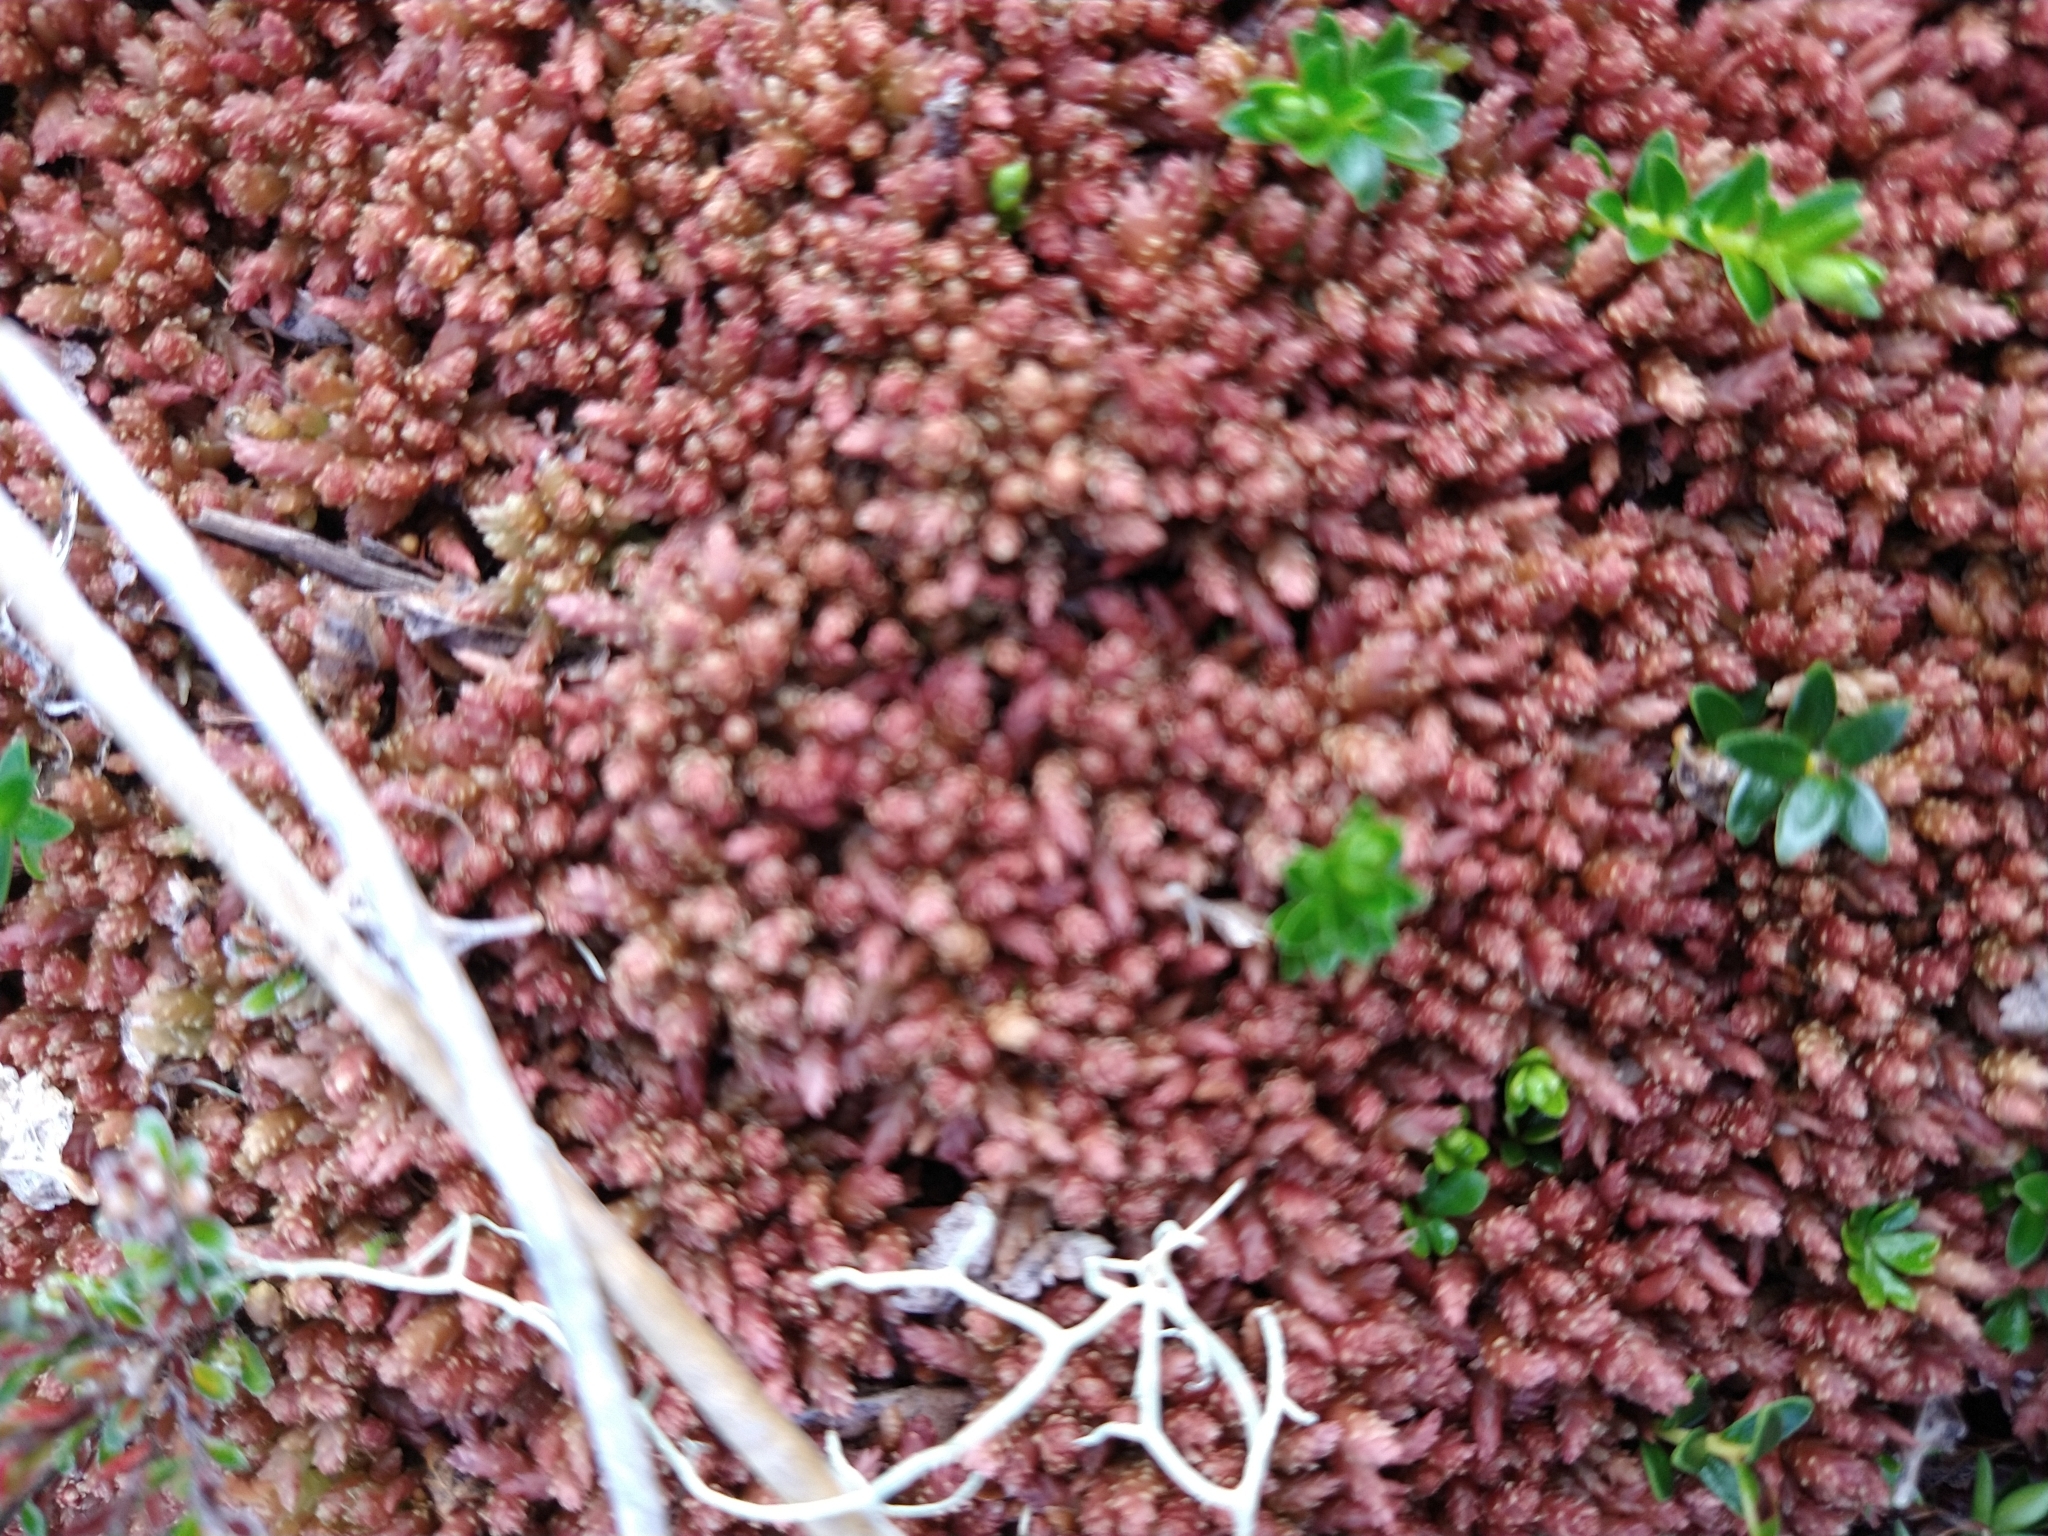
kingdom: Plantae
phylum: Bryophyta
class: Sphagnopsida
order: Sphagnales
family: Sphagnaceae
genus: Sphagnum
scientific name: Sphagnum magellanicum
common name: Magellan's peat moss
